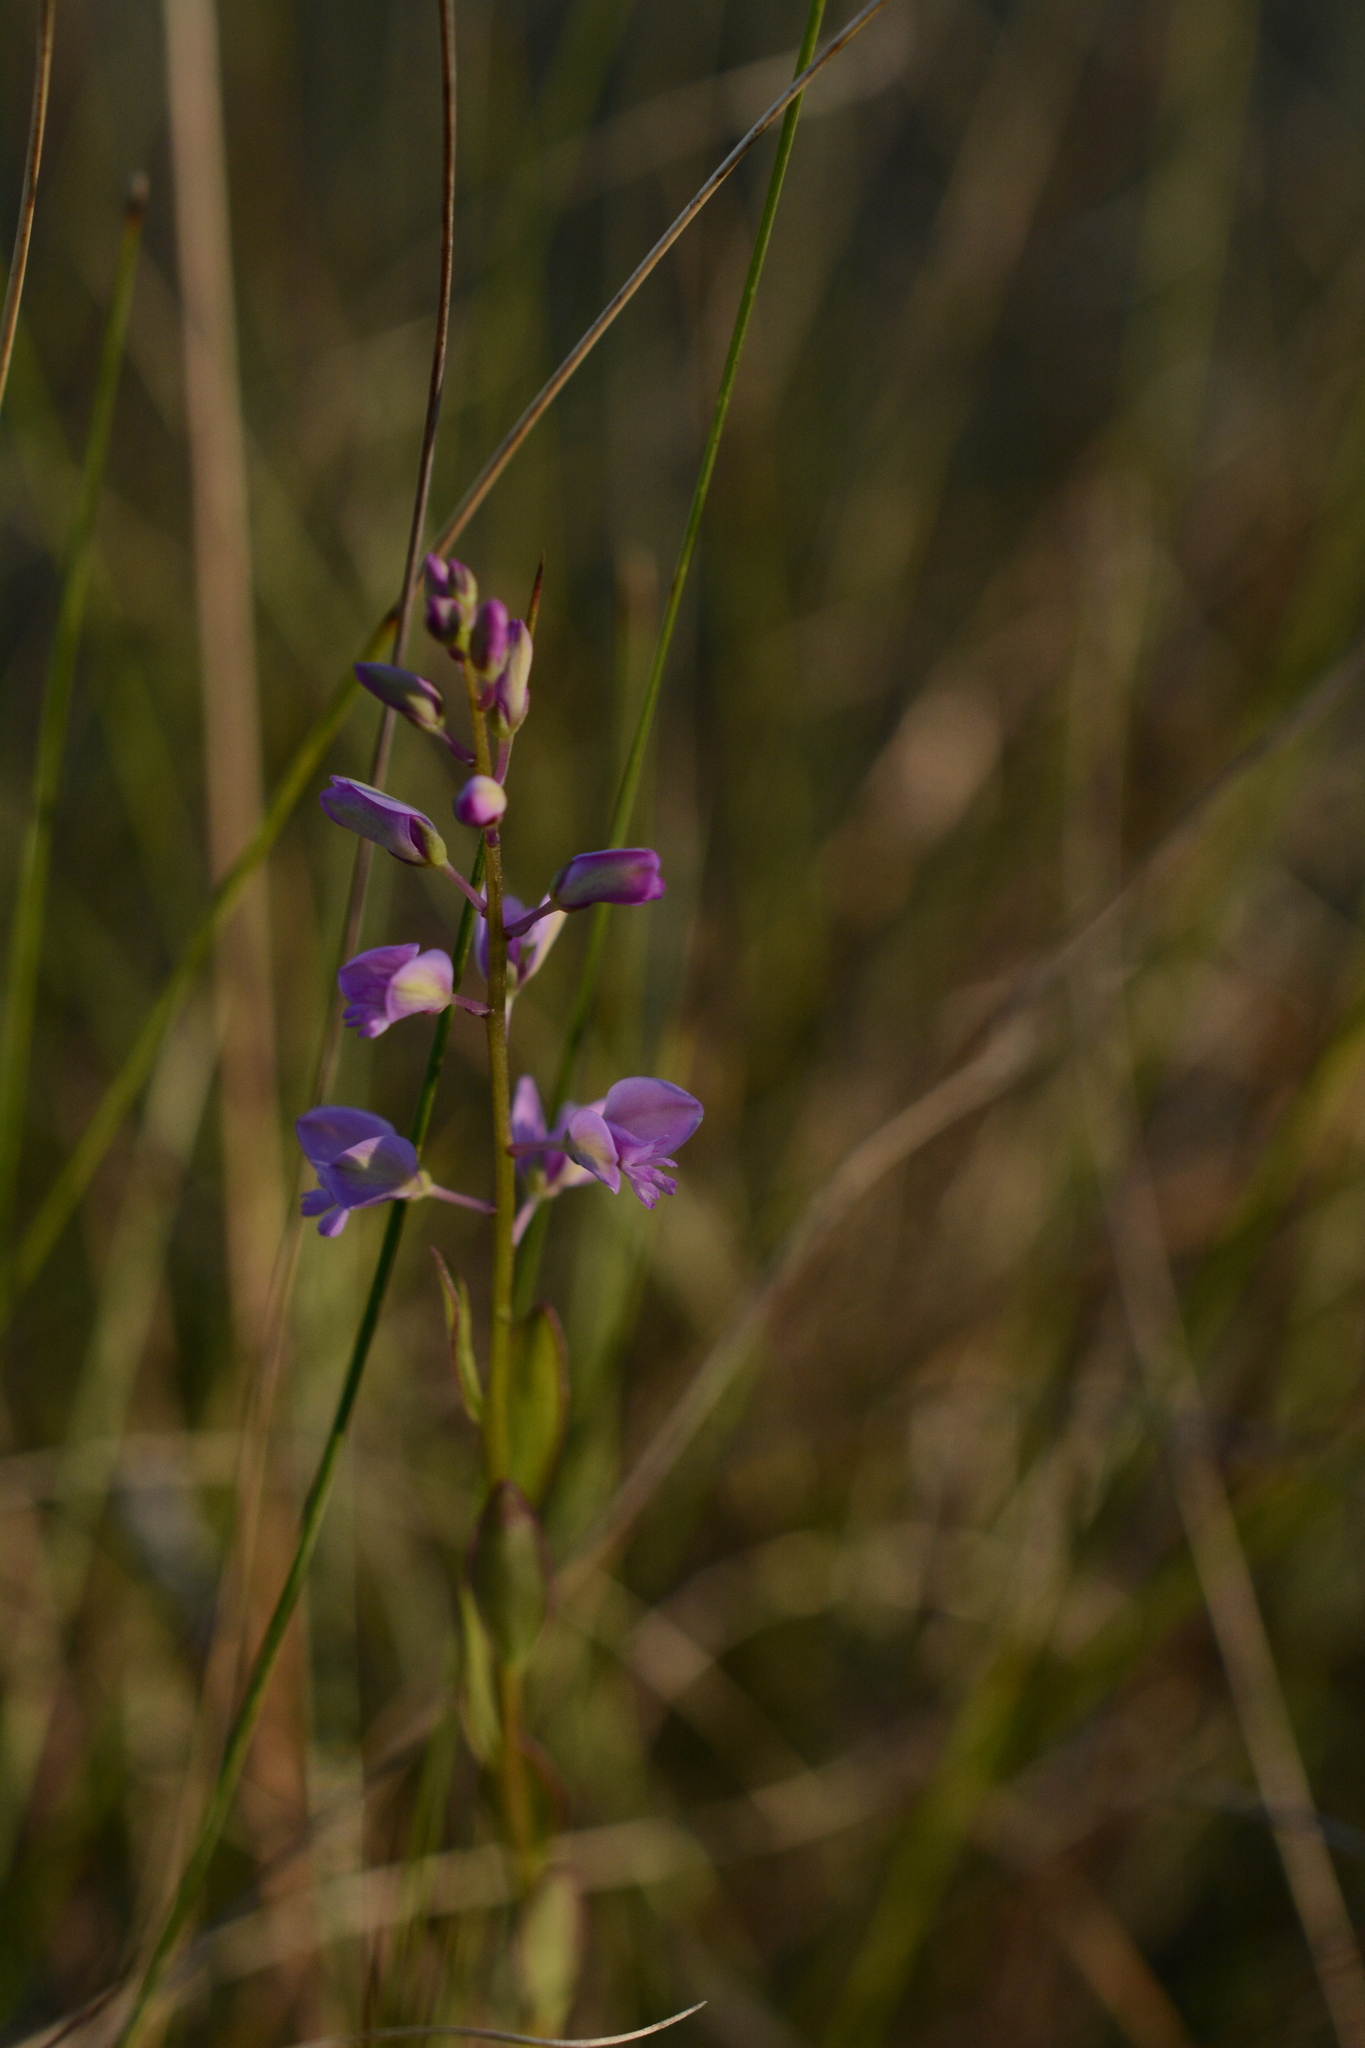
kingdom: Plantae
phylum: Tracheophyta
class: Magnoliopsida
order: Fabales
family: Polygalaceae
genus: Asemeia
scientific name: Asemeia grandiflora
